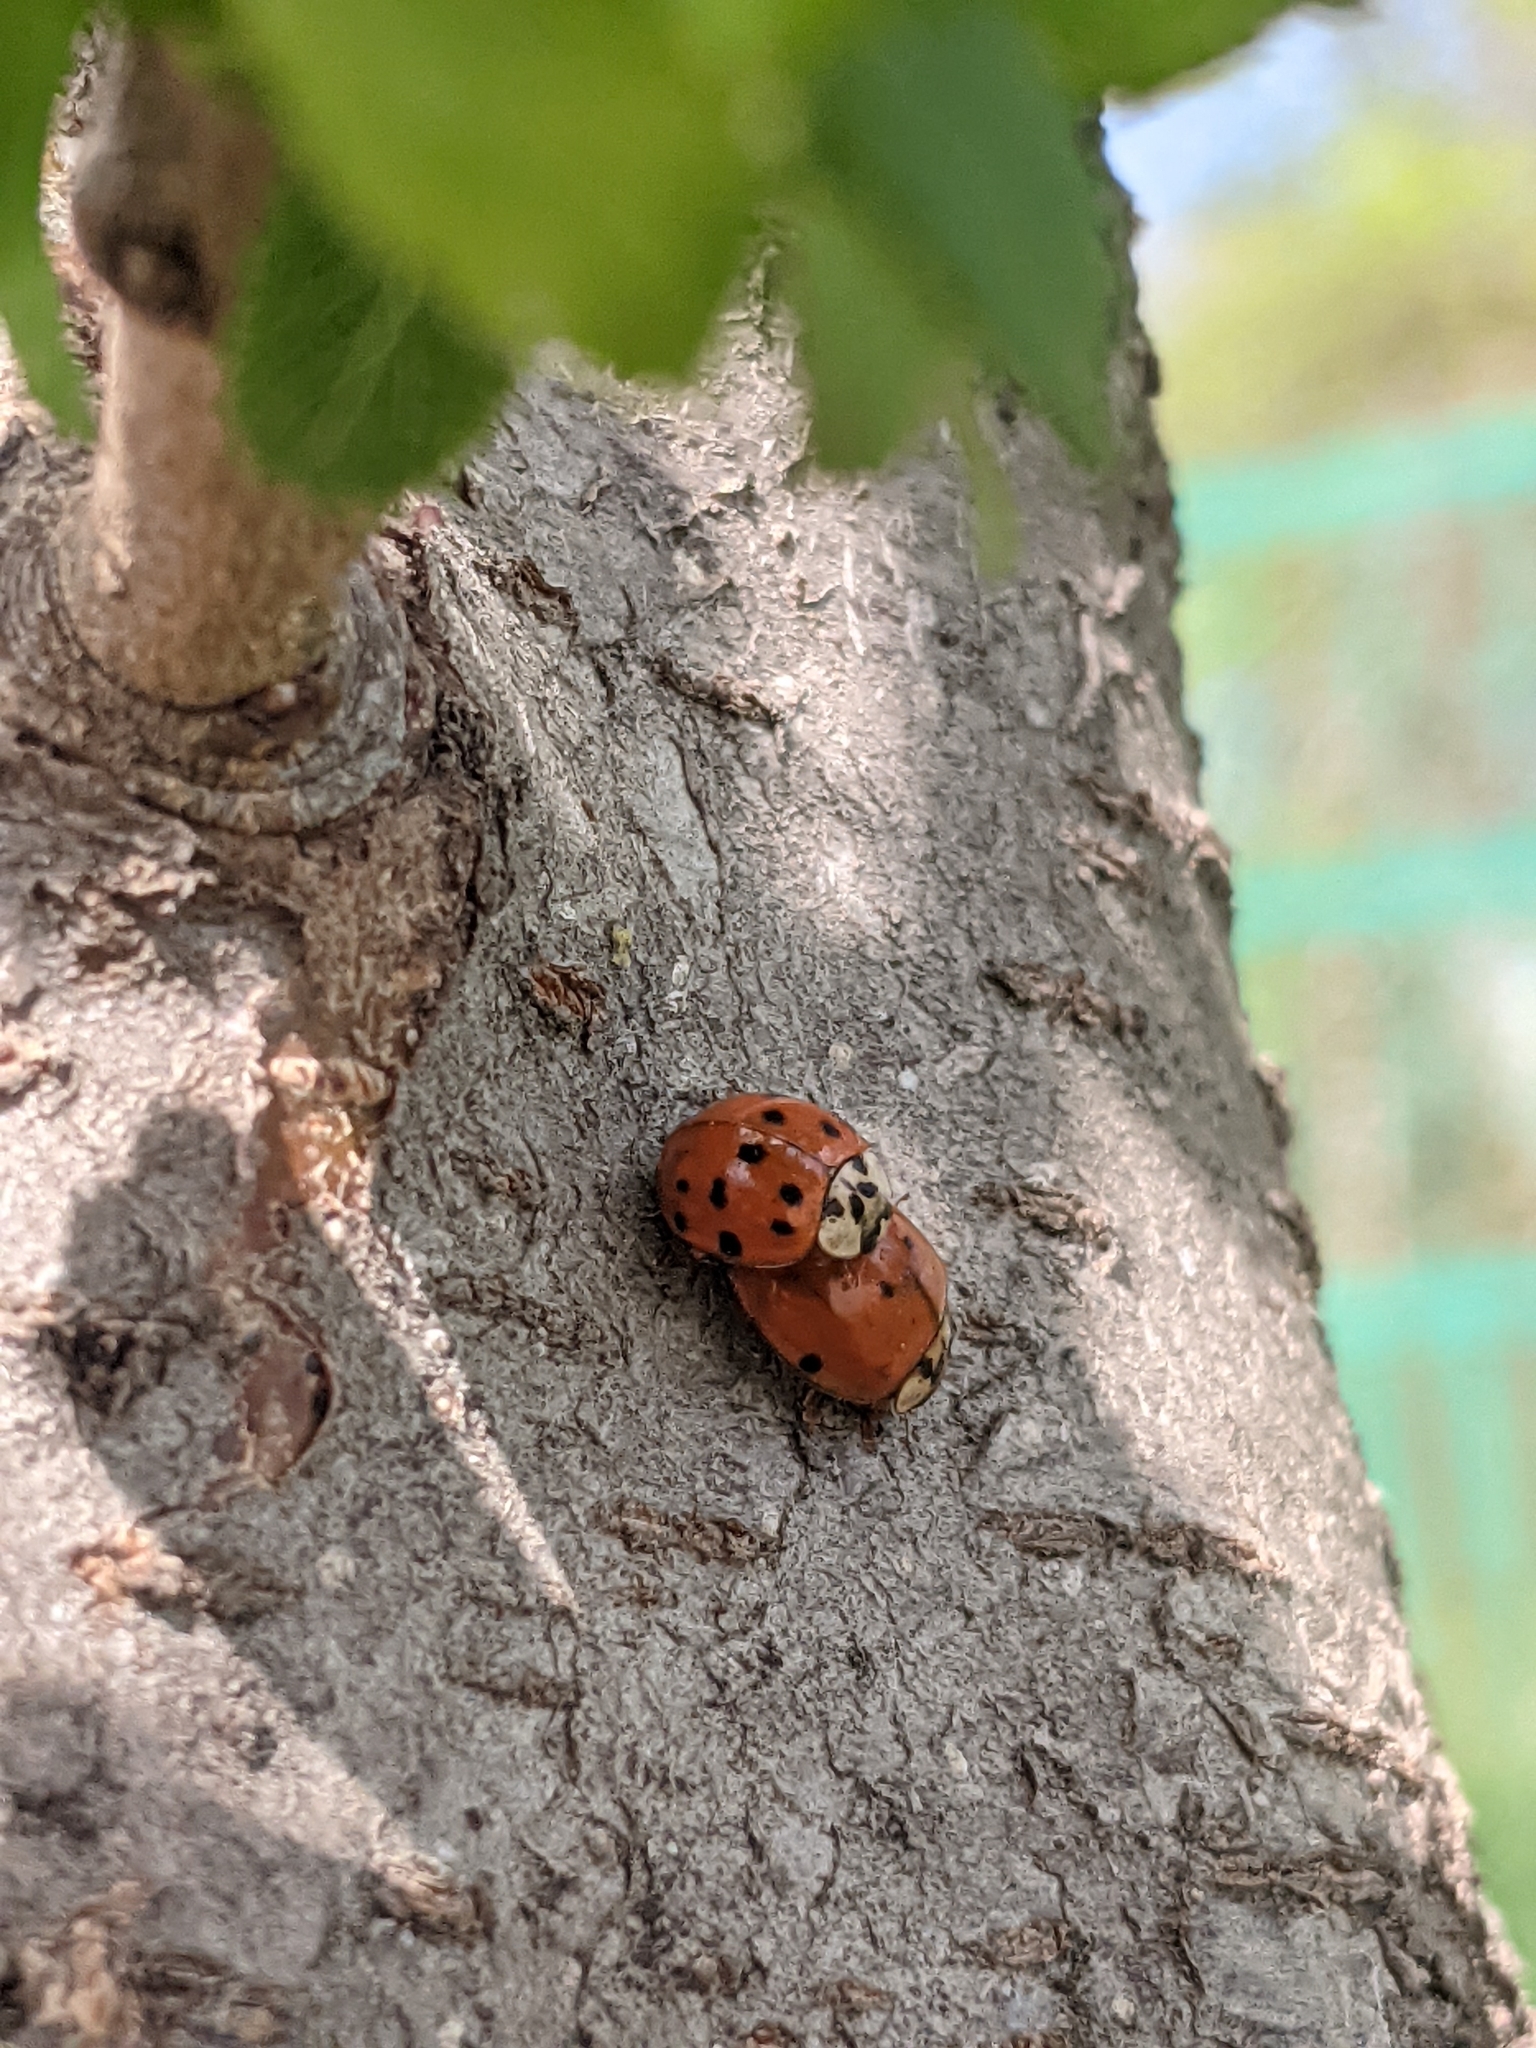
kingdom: Animalia
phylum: Arthropoda
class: Insecta
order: Coleoptera
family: Coccinellidae
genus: Harmonia
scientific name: Harmonia axyridis
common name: Harlequin ladybird
